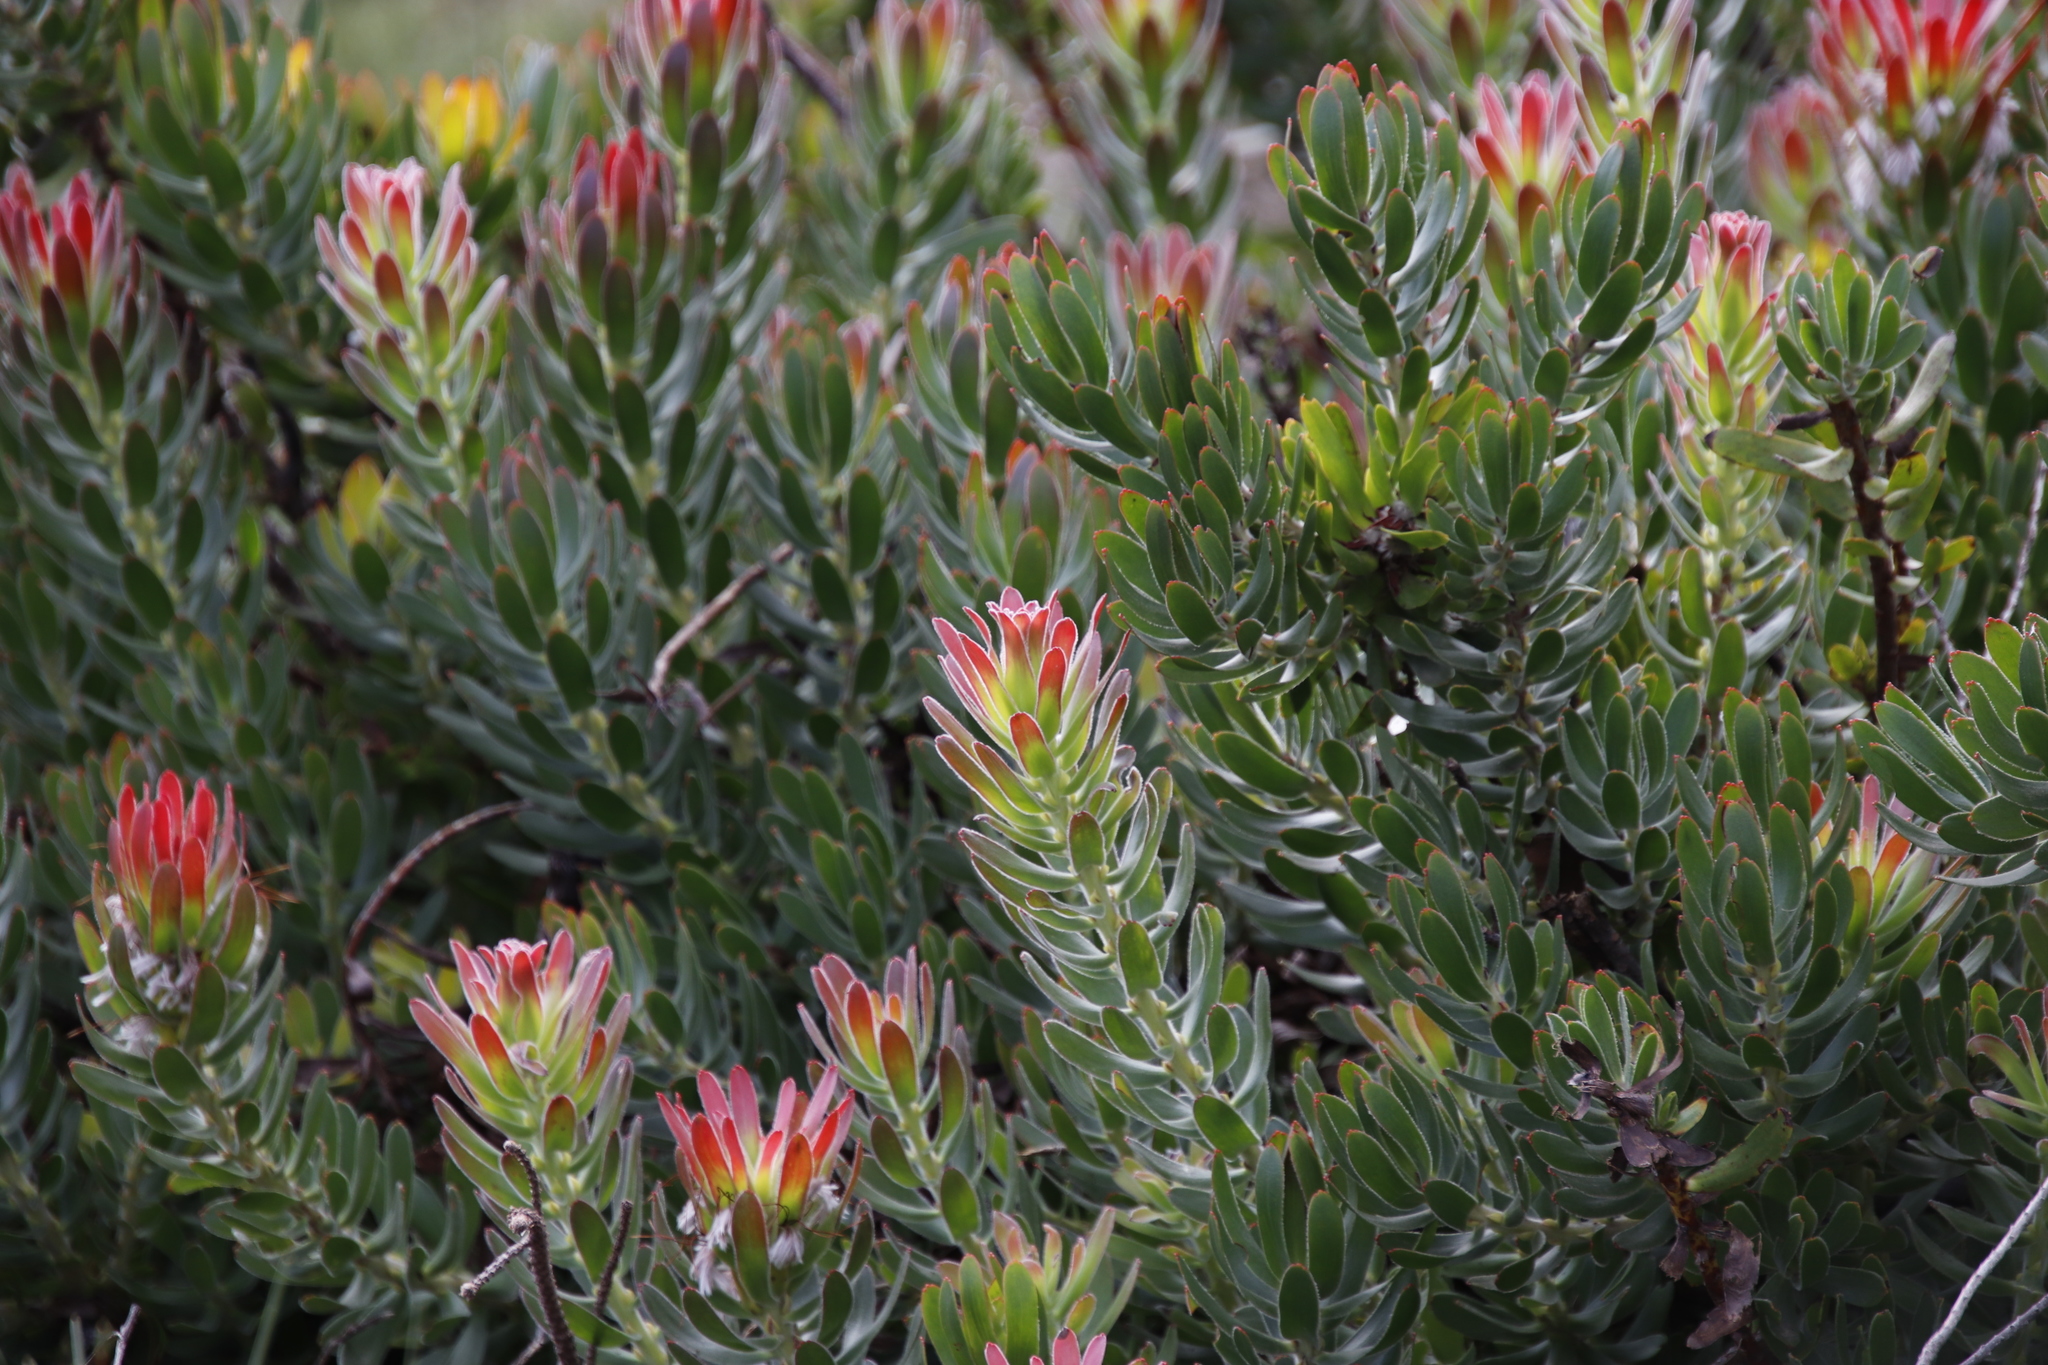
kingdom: Plantae
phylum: Tracheophyta
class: Magnoliopsida
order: Proteales
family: Proteaceae
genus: Mimetes
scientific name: Mimetes cucullatus
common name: Common pagoda
